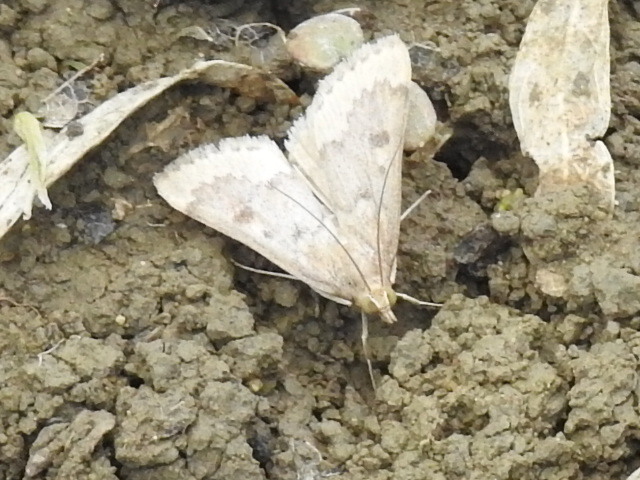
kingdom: Animalia
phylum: Arthropoda
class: Insecta
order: Lepidoptera
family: Crambidae
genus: Udea
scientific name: Udea rubigalis
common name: Celery leaftier moth
